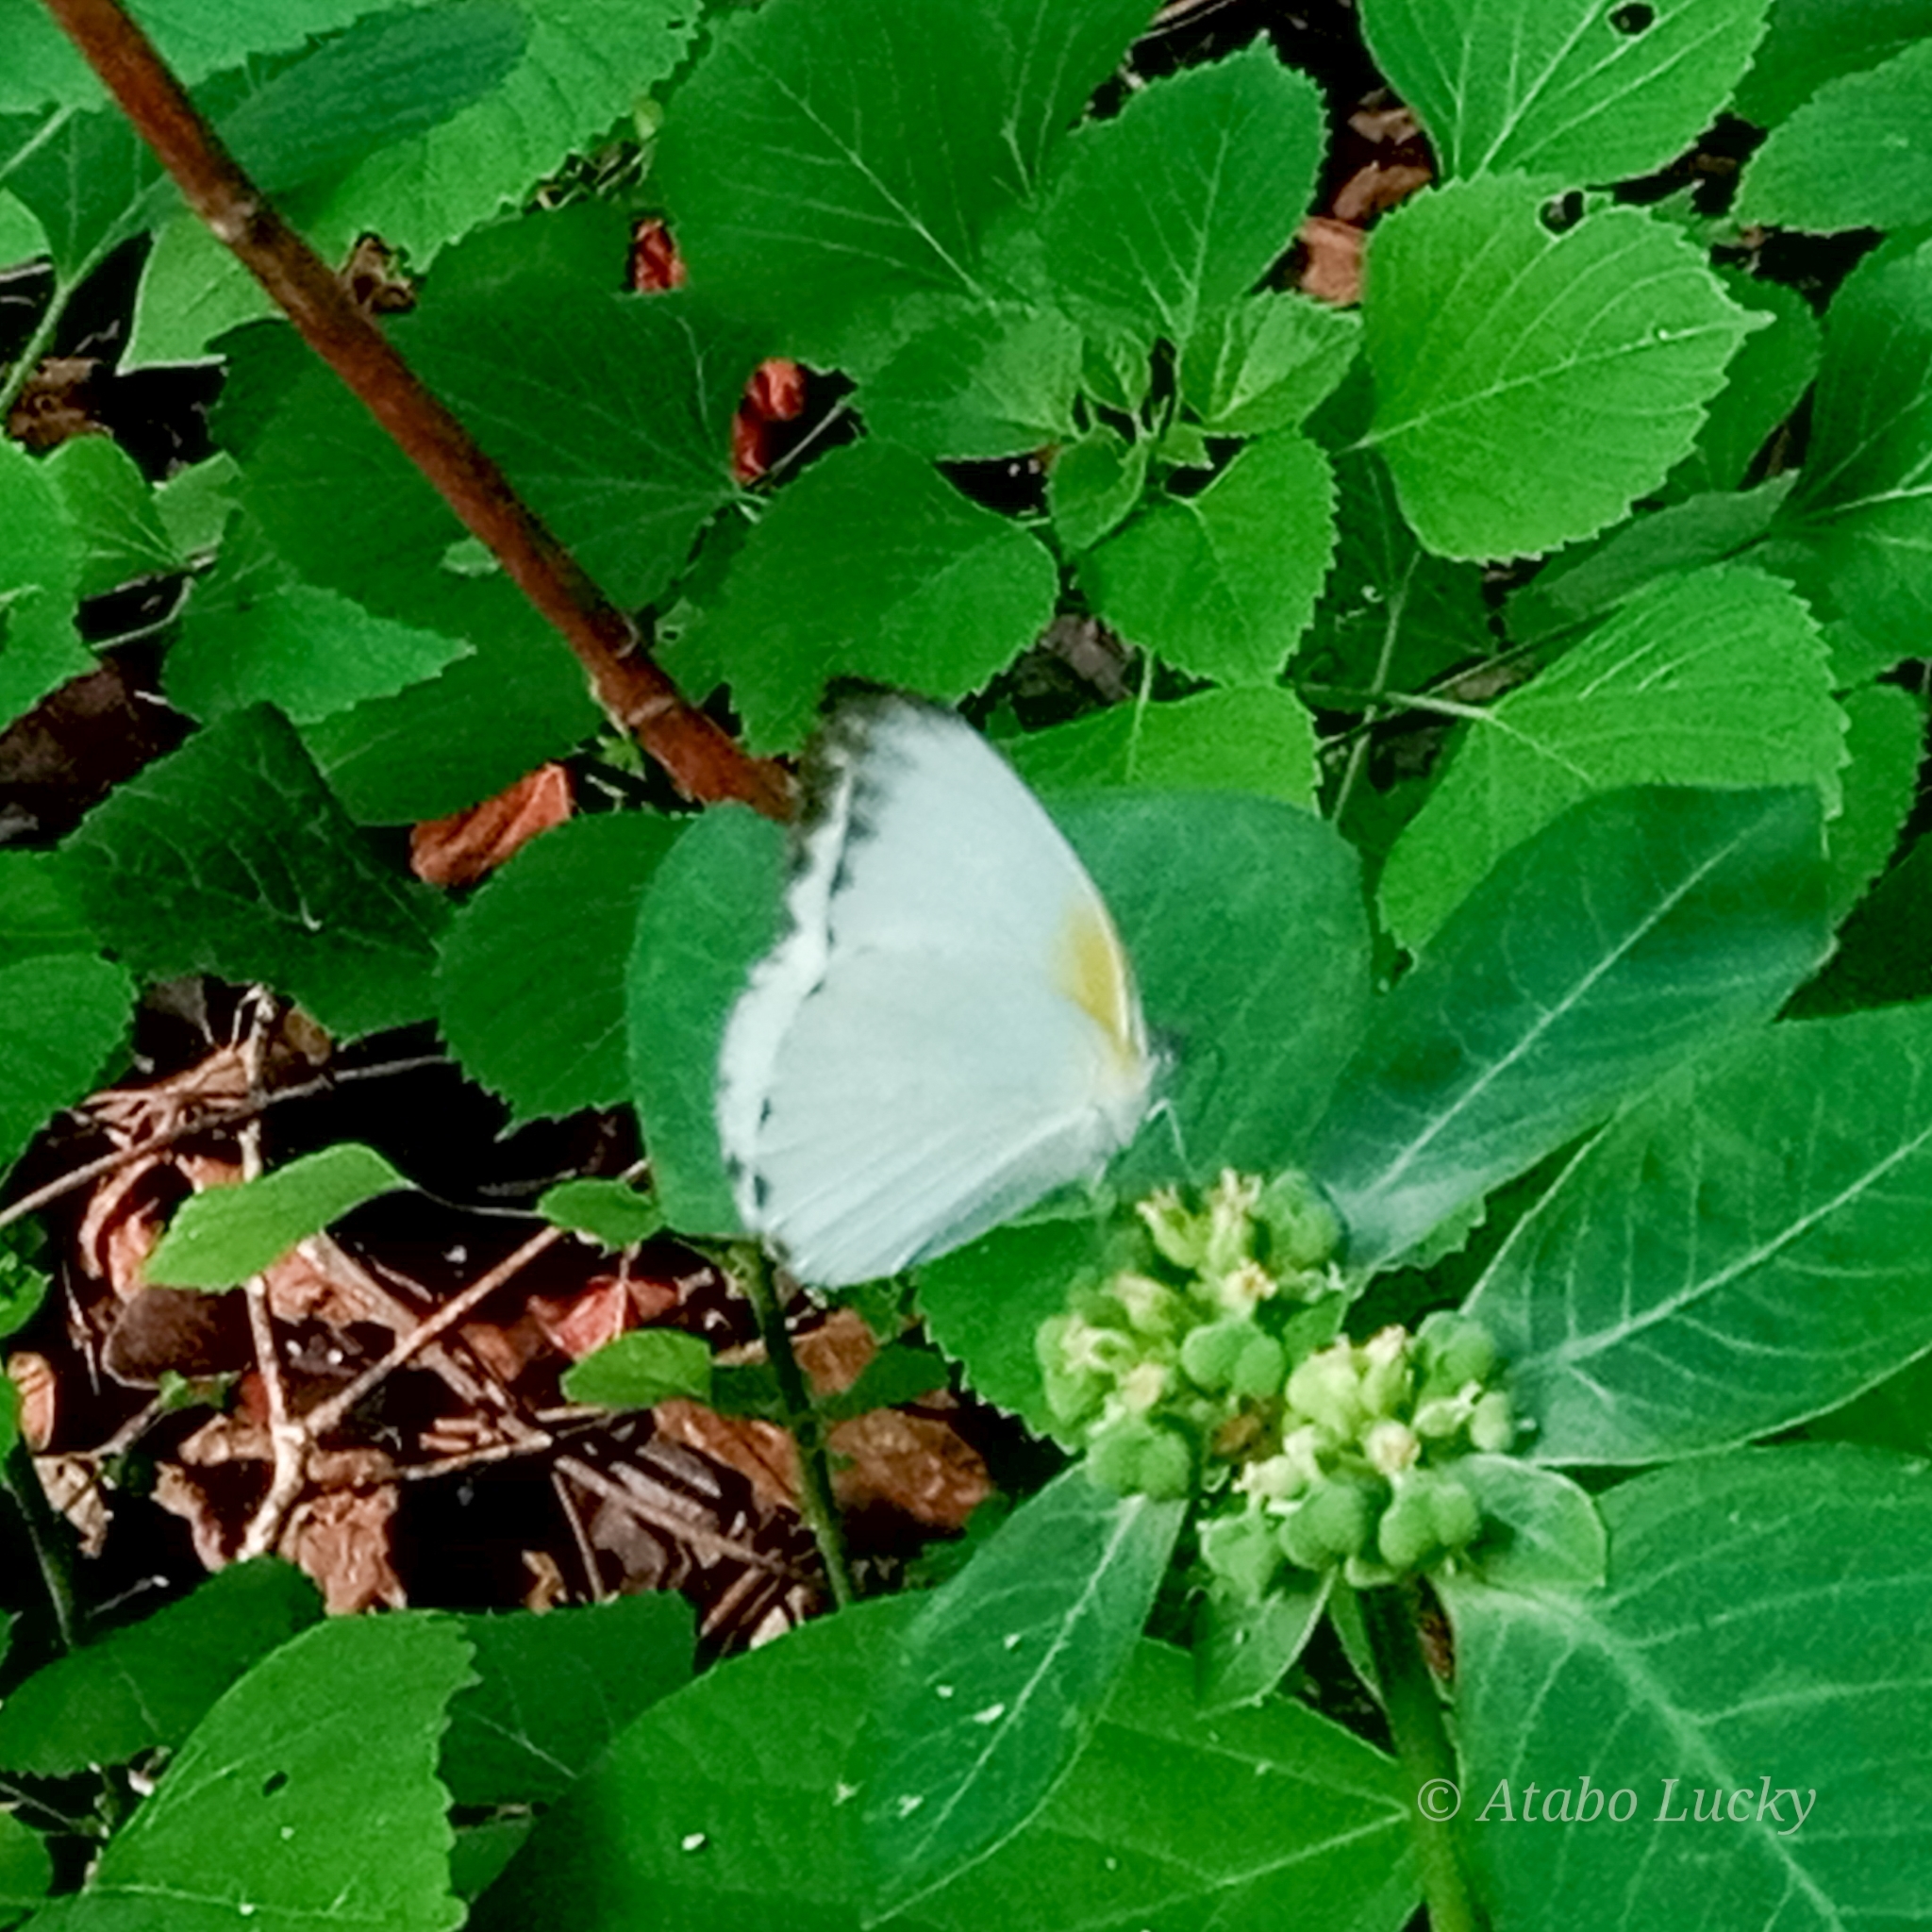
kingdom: Animalia
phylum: Arthropoda
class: Insecta
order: Lepidoptera
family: Pieridae
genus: Glutophrissa
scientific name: Glutophrissa epaphia
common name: African albatross
